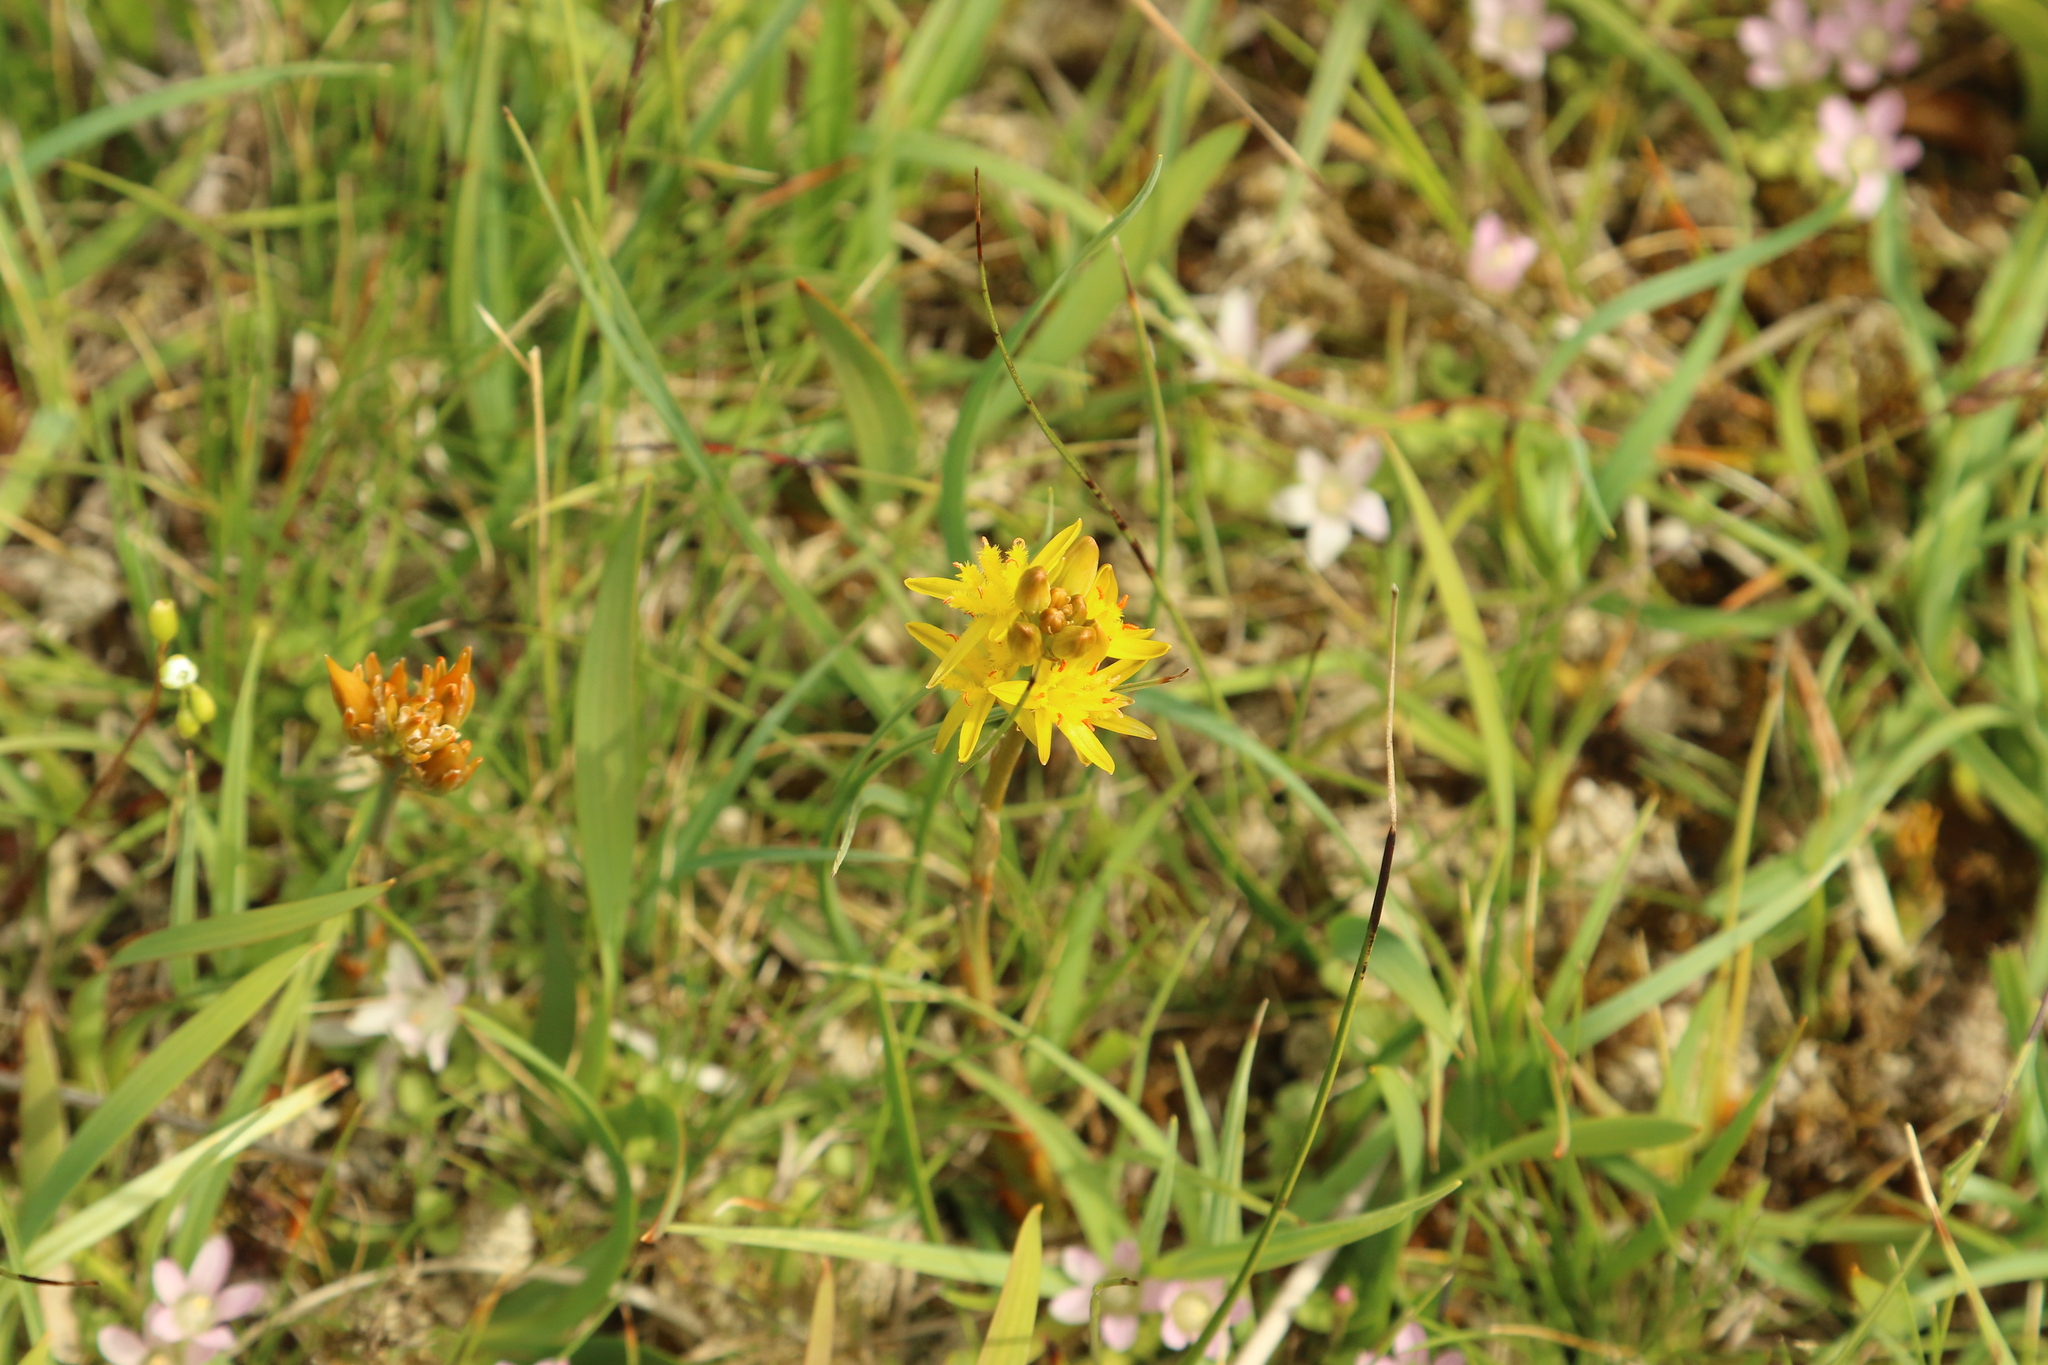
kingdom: Plantae
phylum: Tracheophyta
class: Liliopsida
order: Dioscoreales
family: Nartheciaceae
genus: Narthecium
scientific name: Narthecium ossifragum
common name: Bog asphodel
